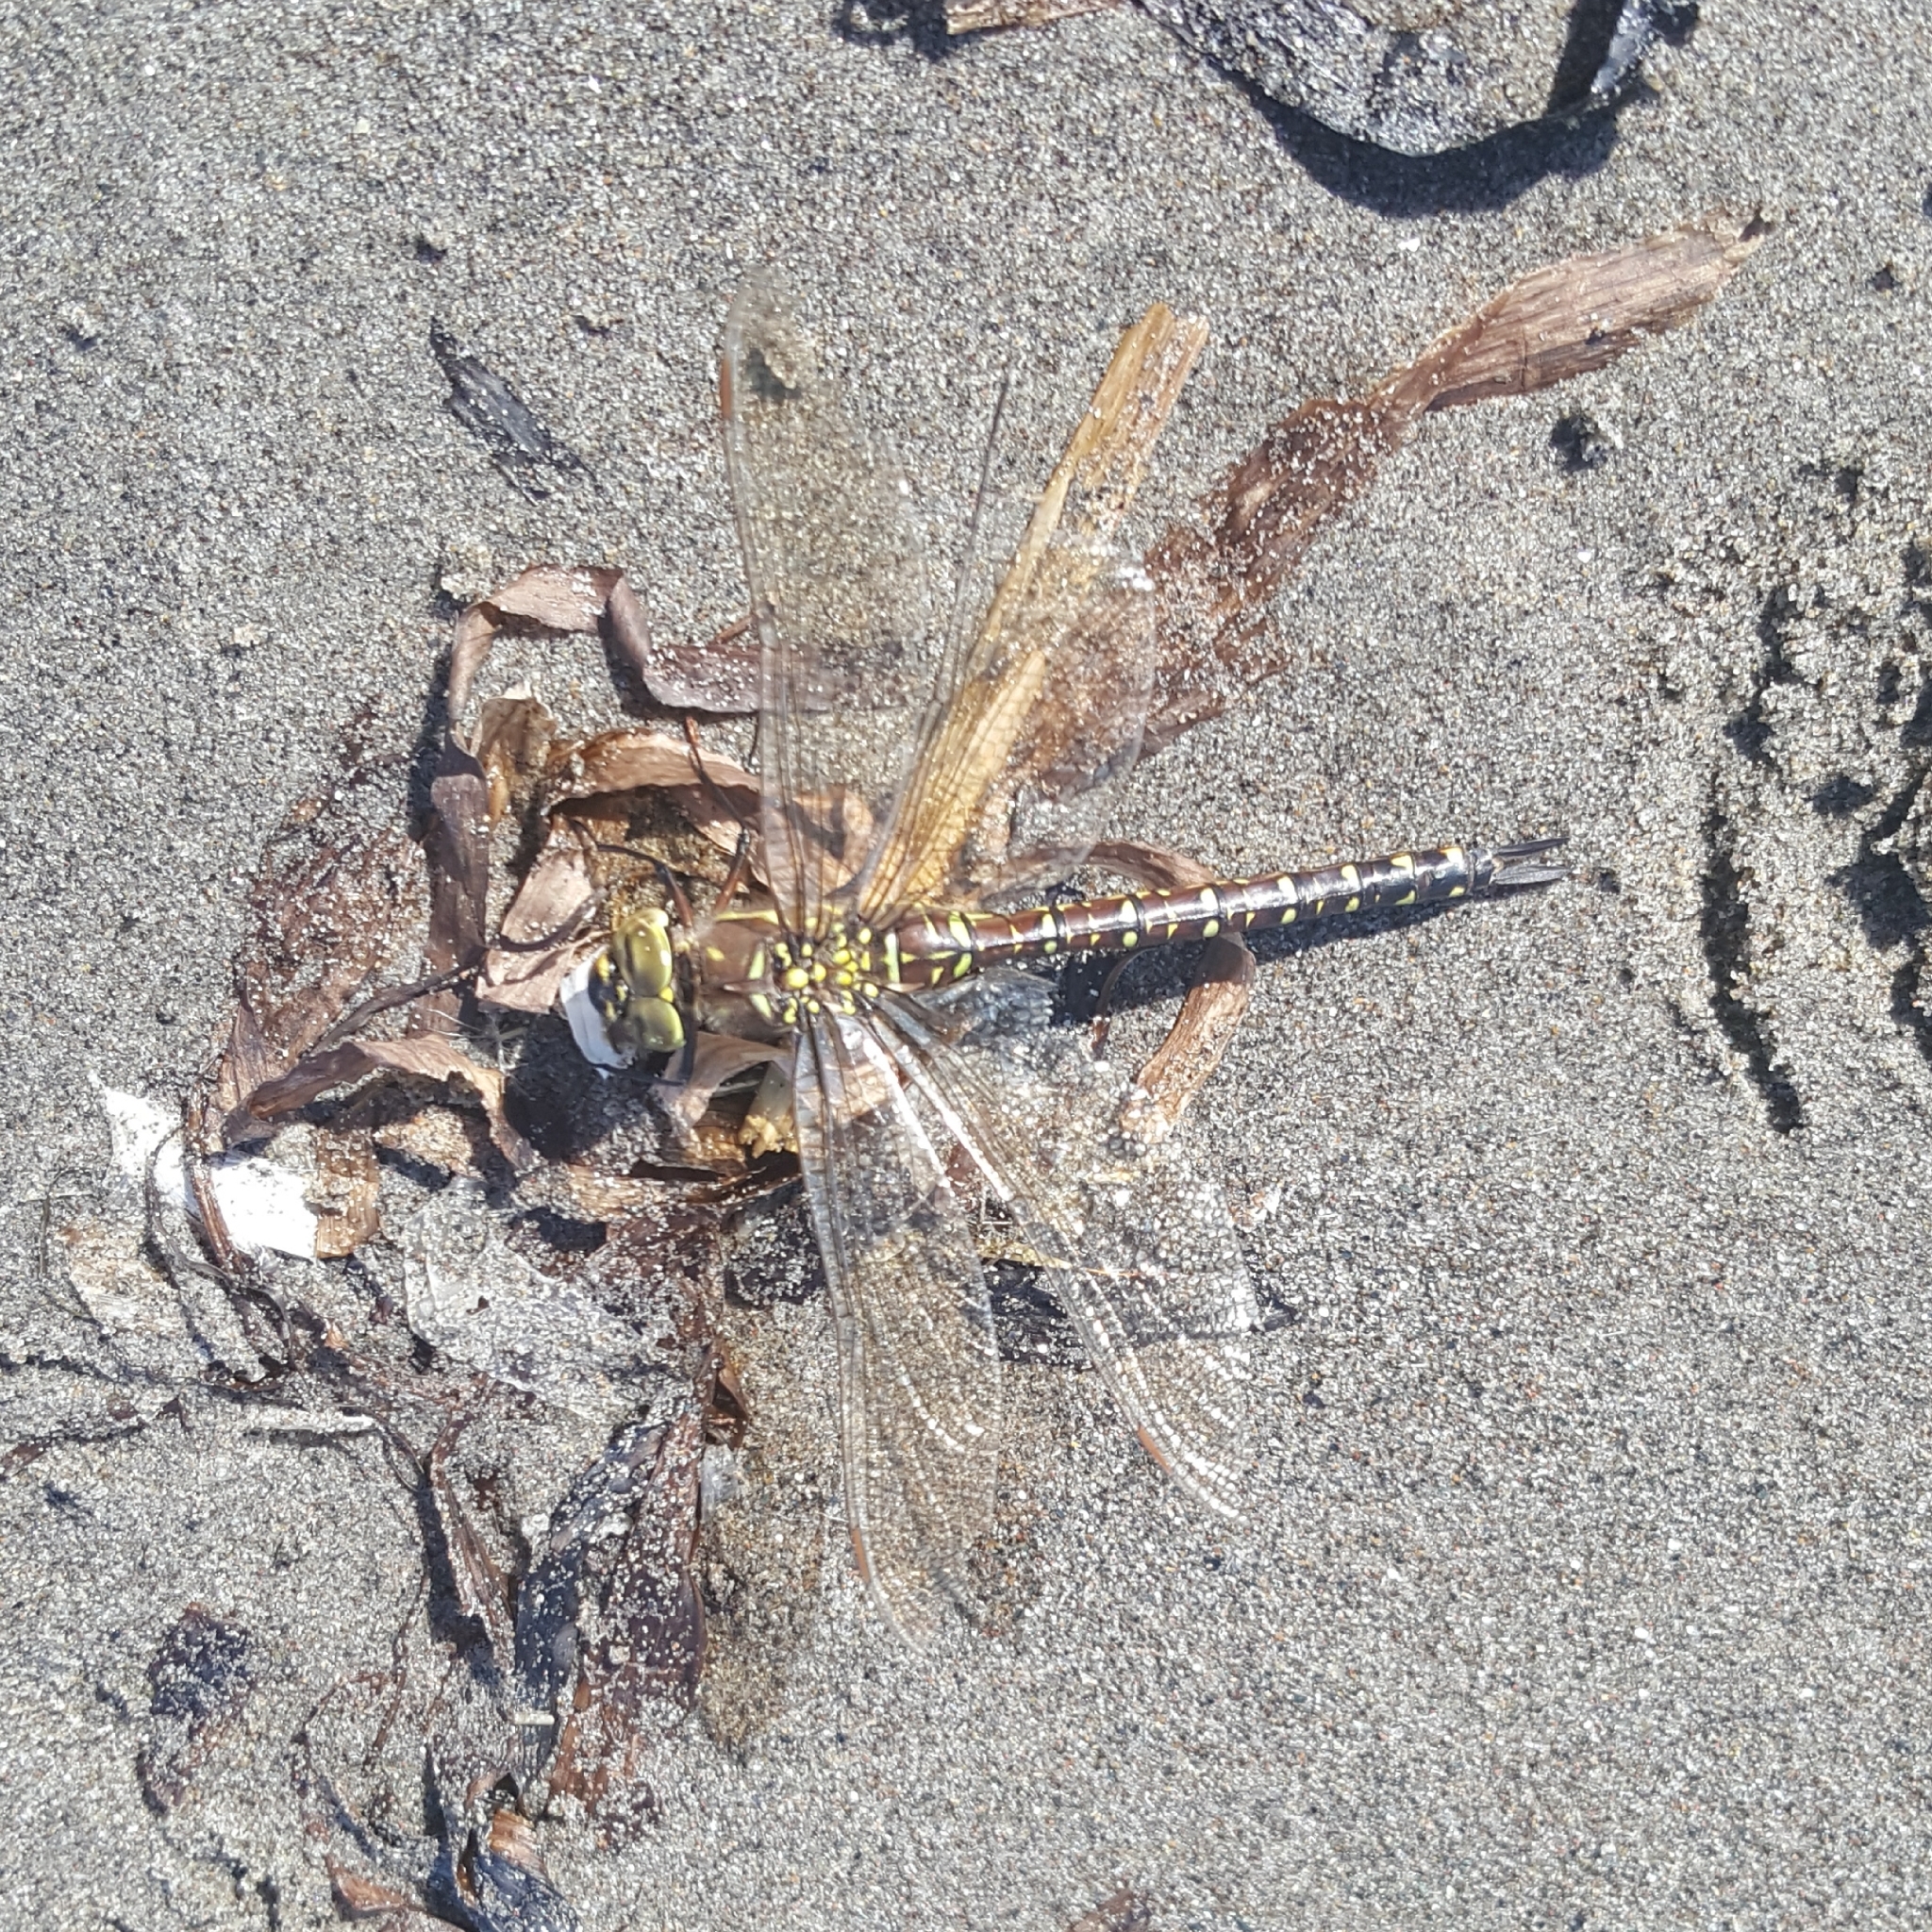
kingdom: Animalia
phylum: Arthropoda
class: Insecta
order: Odonata
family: Aeshnidae
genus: Aeshna
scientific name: Aeshna palmata
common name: Paddle-tailed darner
